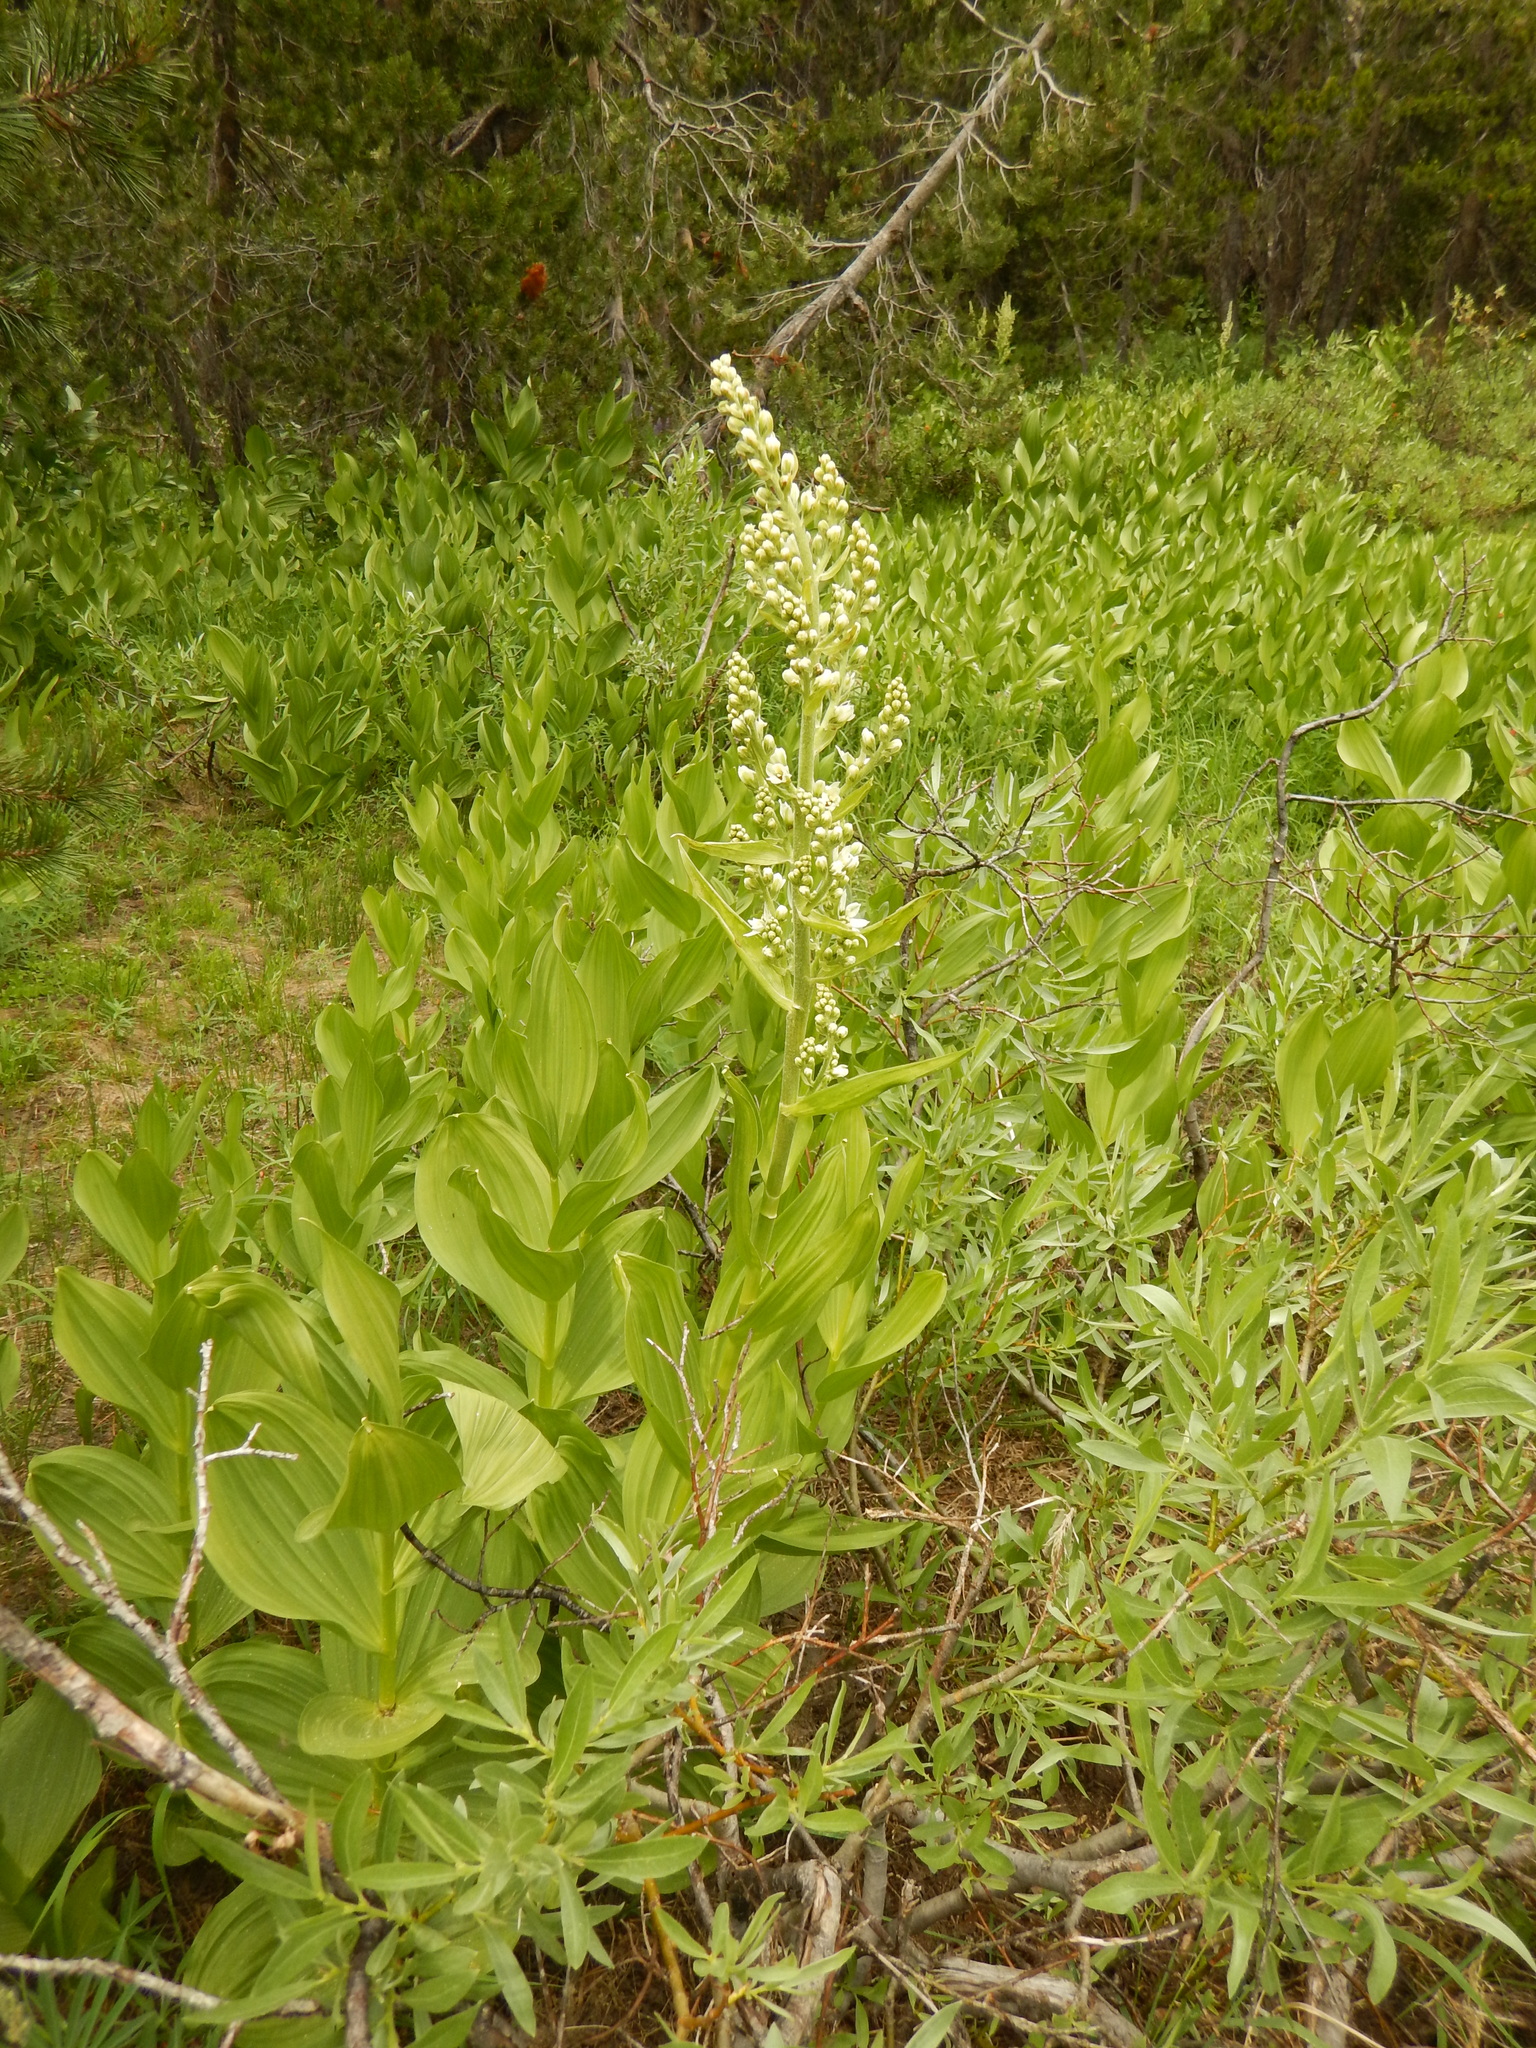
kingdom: Plantae
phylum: Tracheophyta
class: Liliopsida
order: Liliales
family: Melanthiaceae
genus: Veratrum
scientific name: Veratrum californicum
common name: California veratrum
